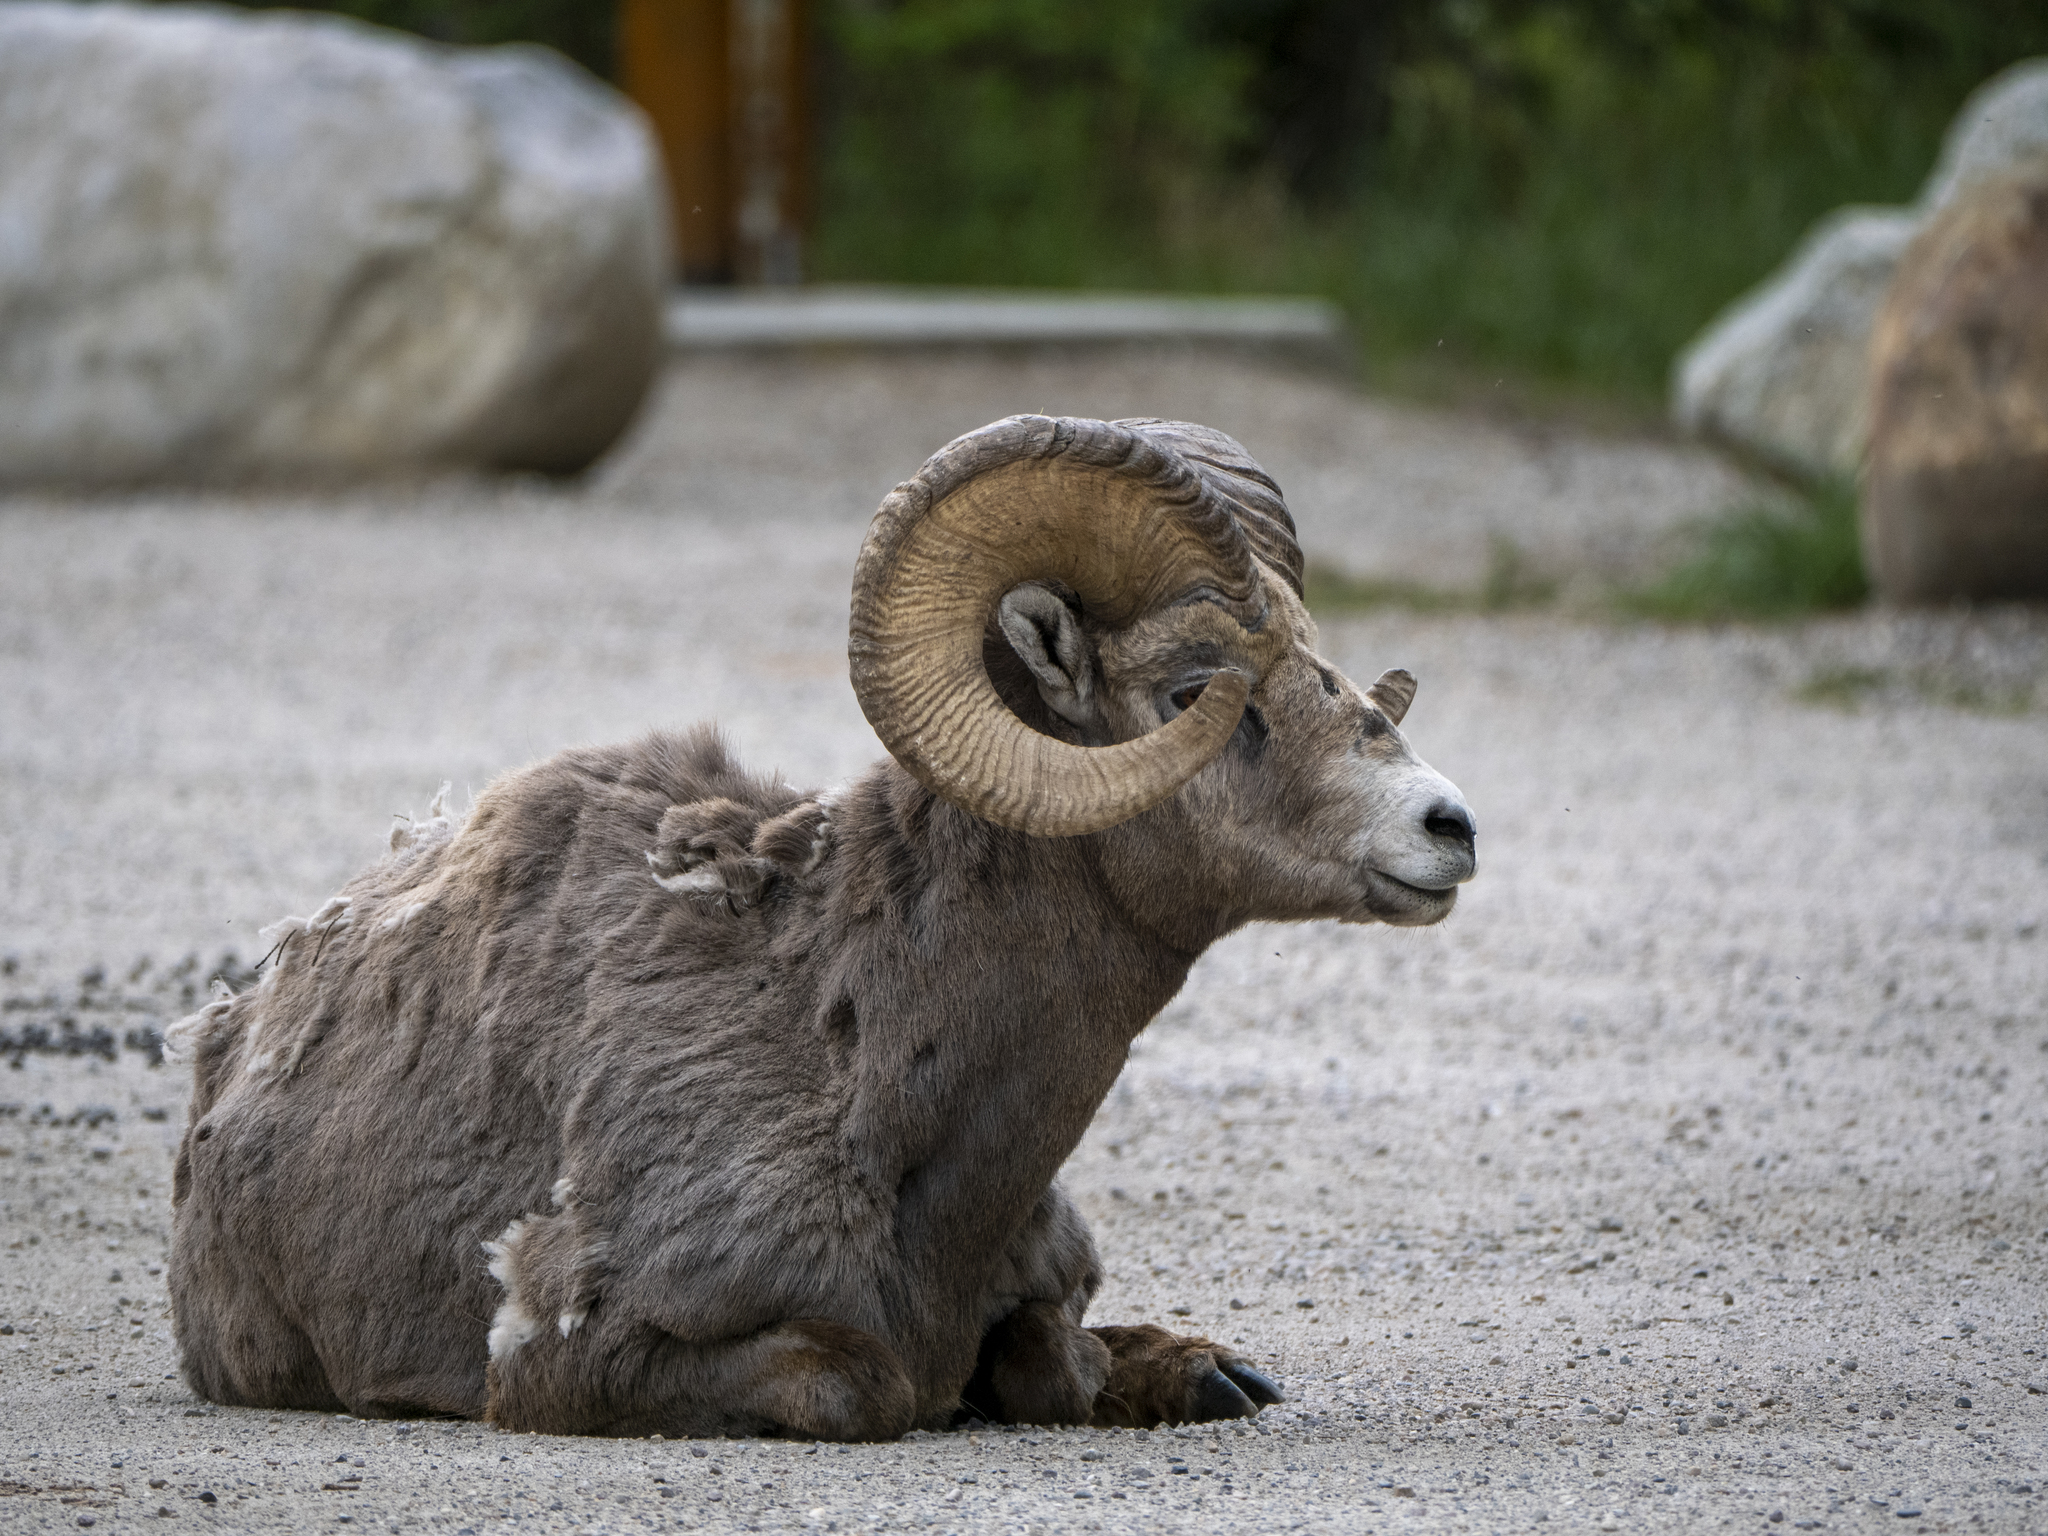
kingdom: Animalia
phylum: Chordata
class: Mammalia
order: Artiodactyla
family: Bovidae
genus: Ovis
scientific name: Ovis canadensis
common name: Bighorn sheep
